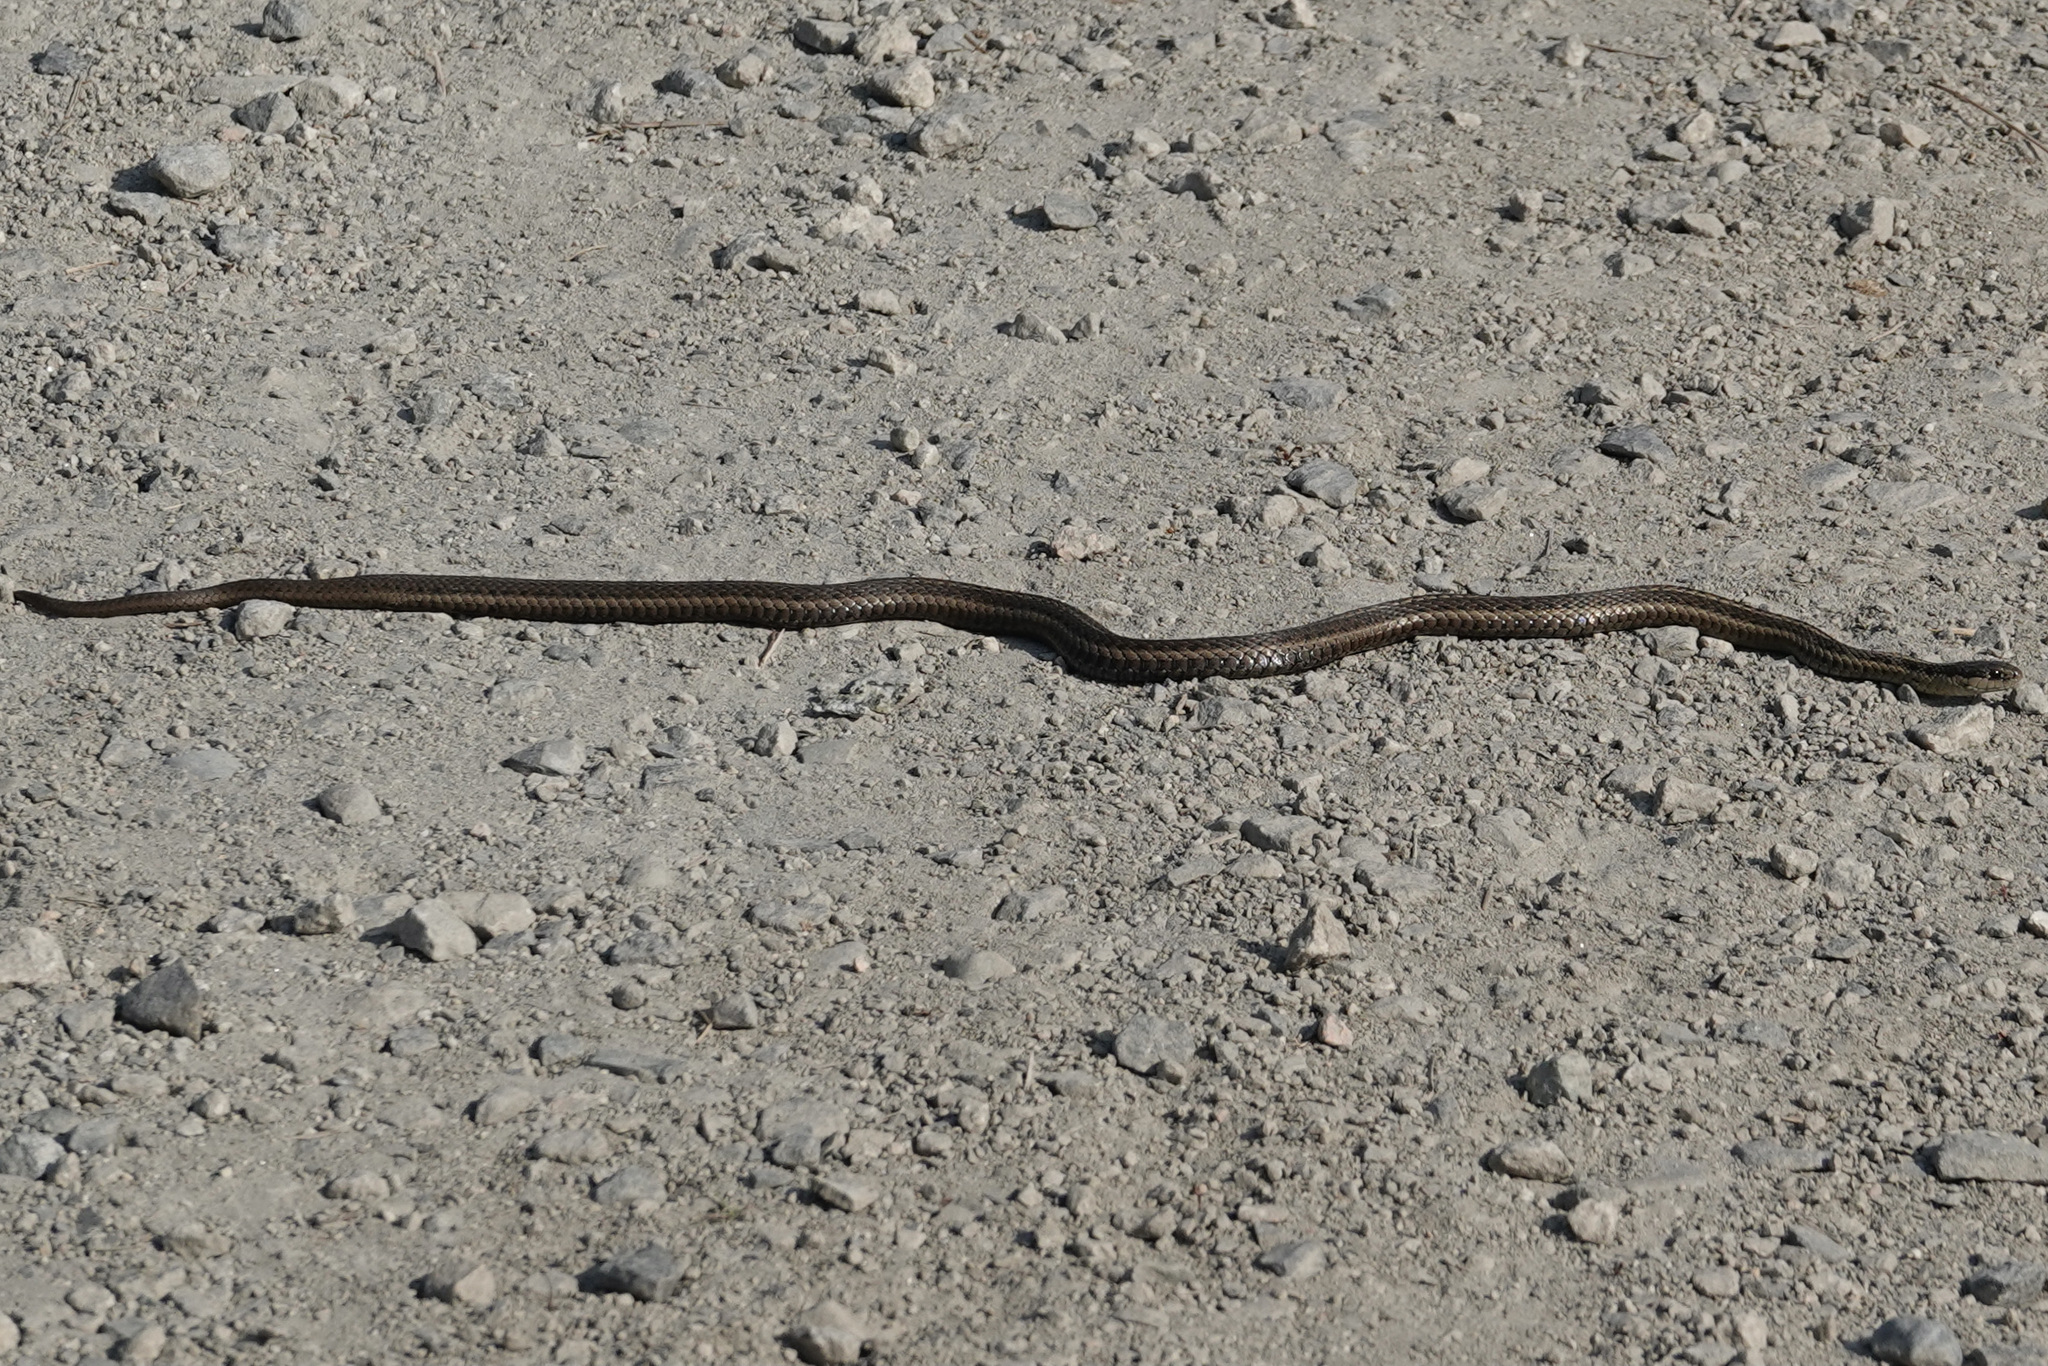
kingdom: Animalia
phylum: Chordata
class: Squamata
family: Colubridae
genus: Thamnophis
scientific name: Thamnophis ordinoides
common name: Northwestern garter snake
